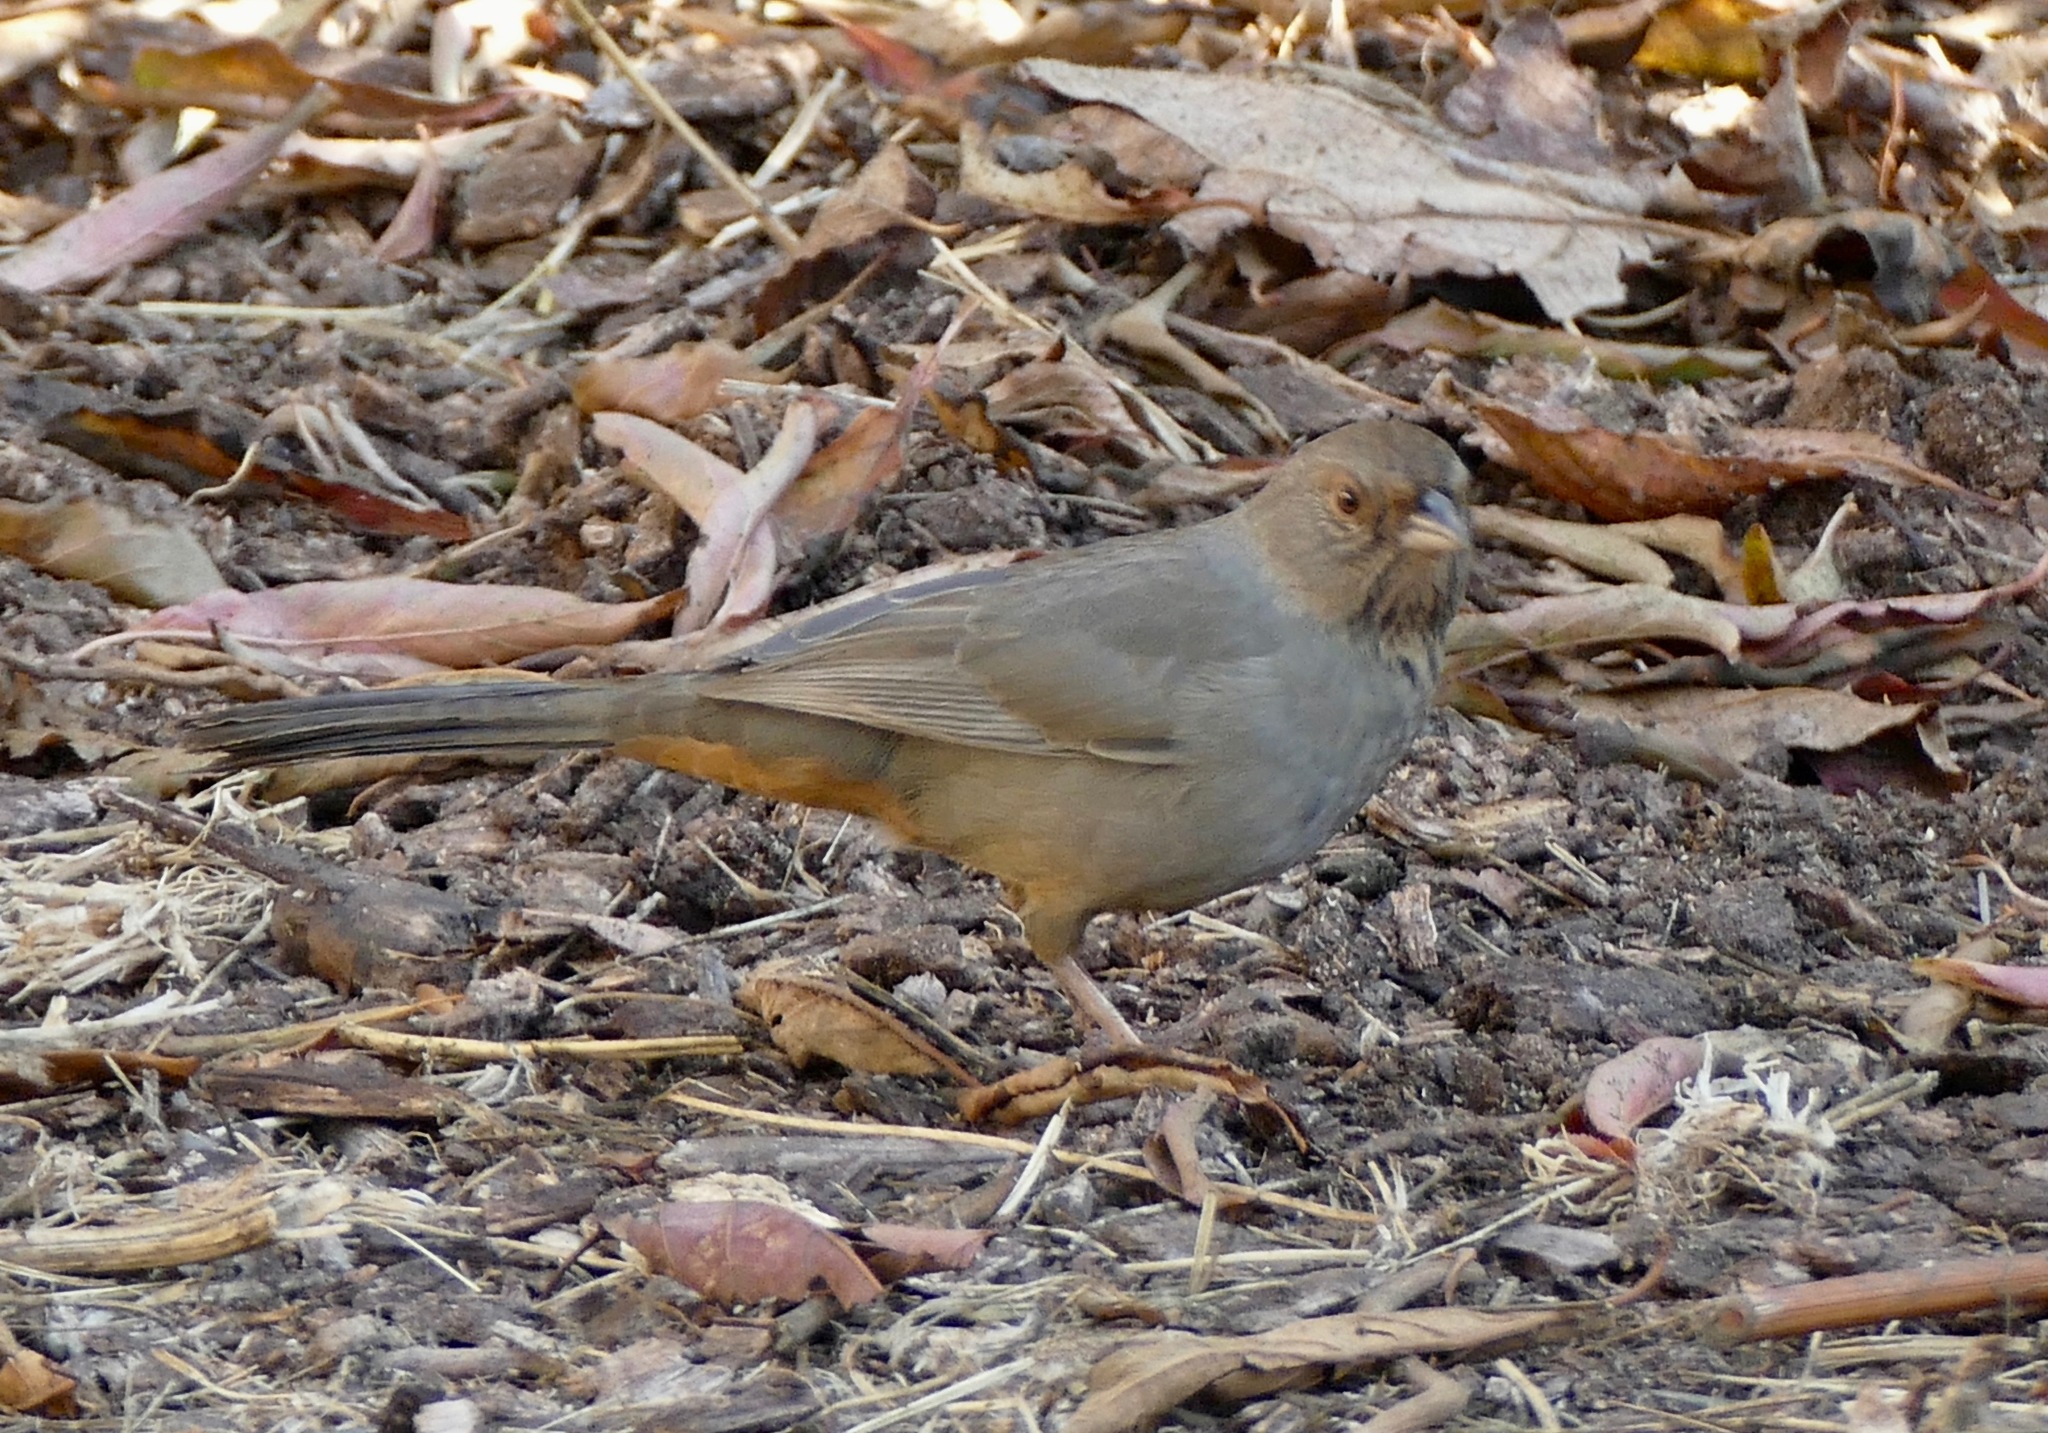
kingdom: Animalia
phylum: Chordata
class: Aves
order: Passeriformes
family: Passerellidae
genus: Melozone
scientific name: Melozone crissalis
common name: California towhee
